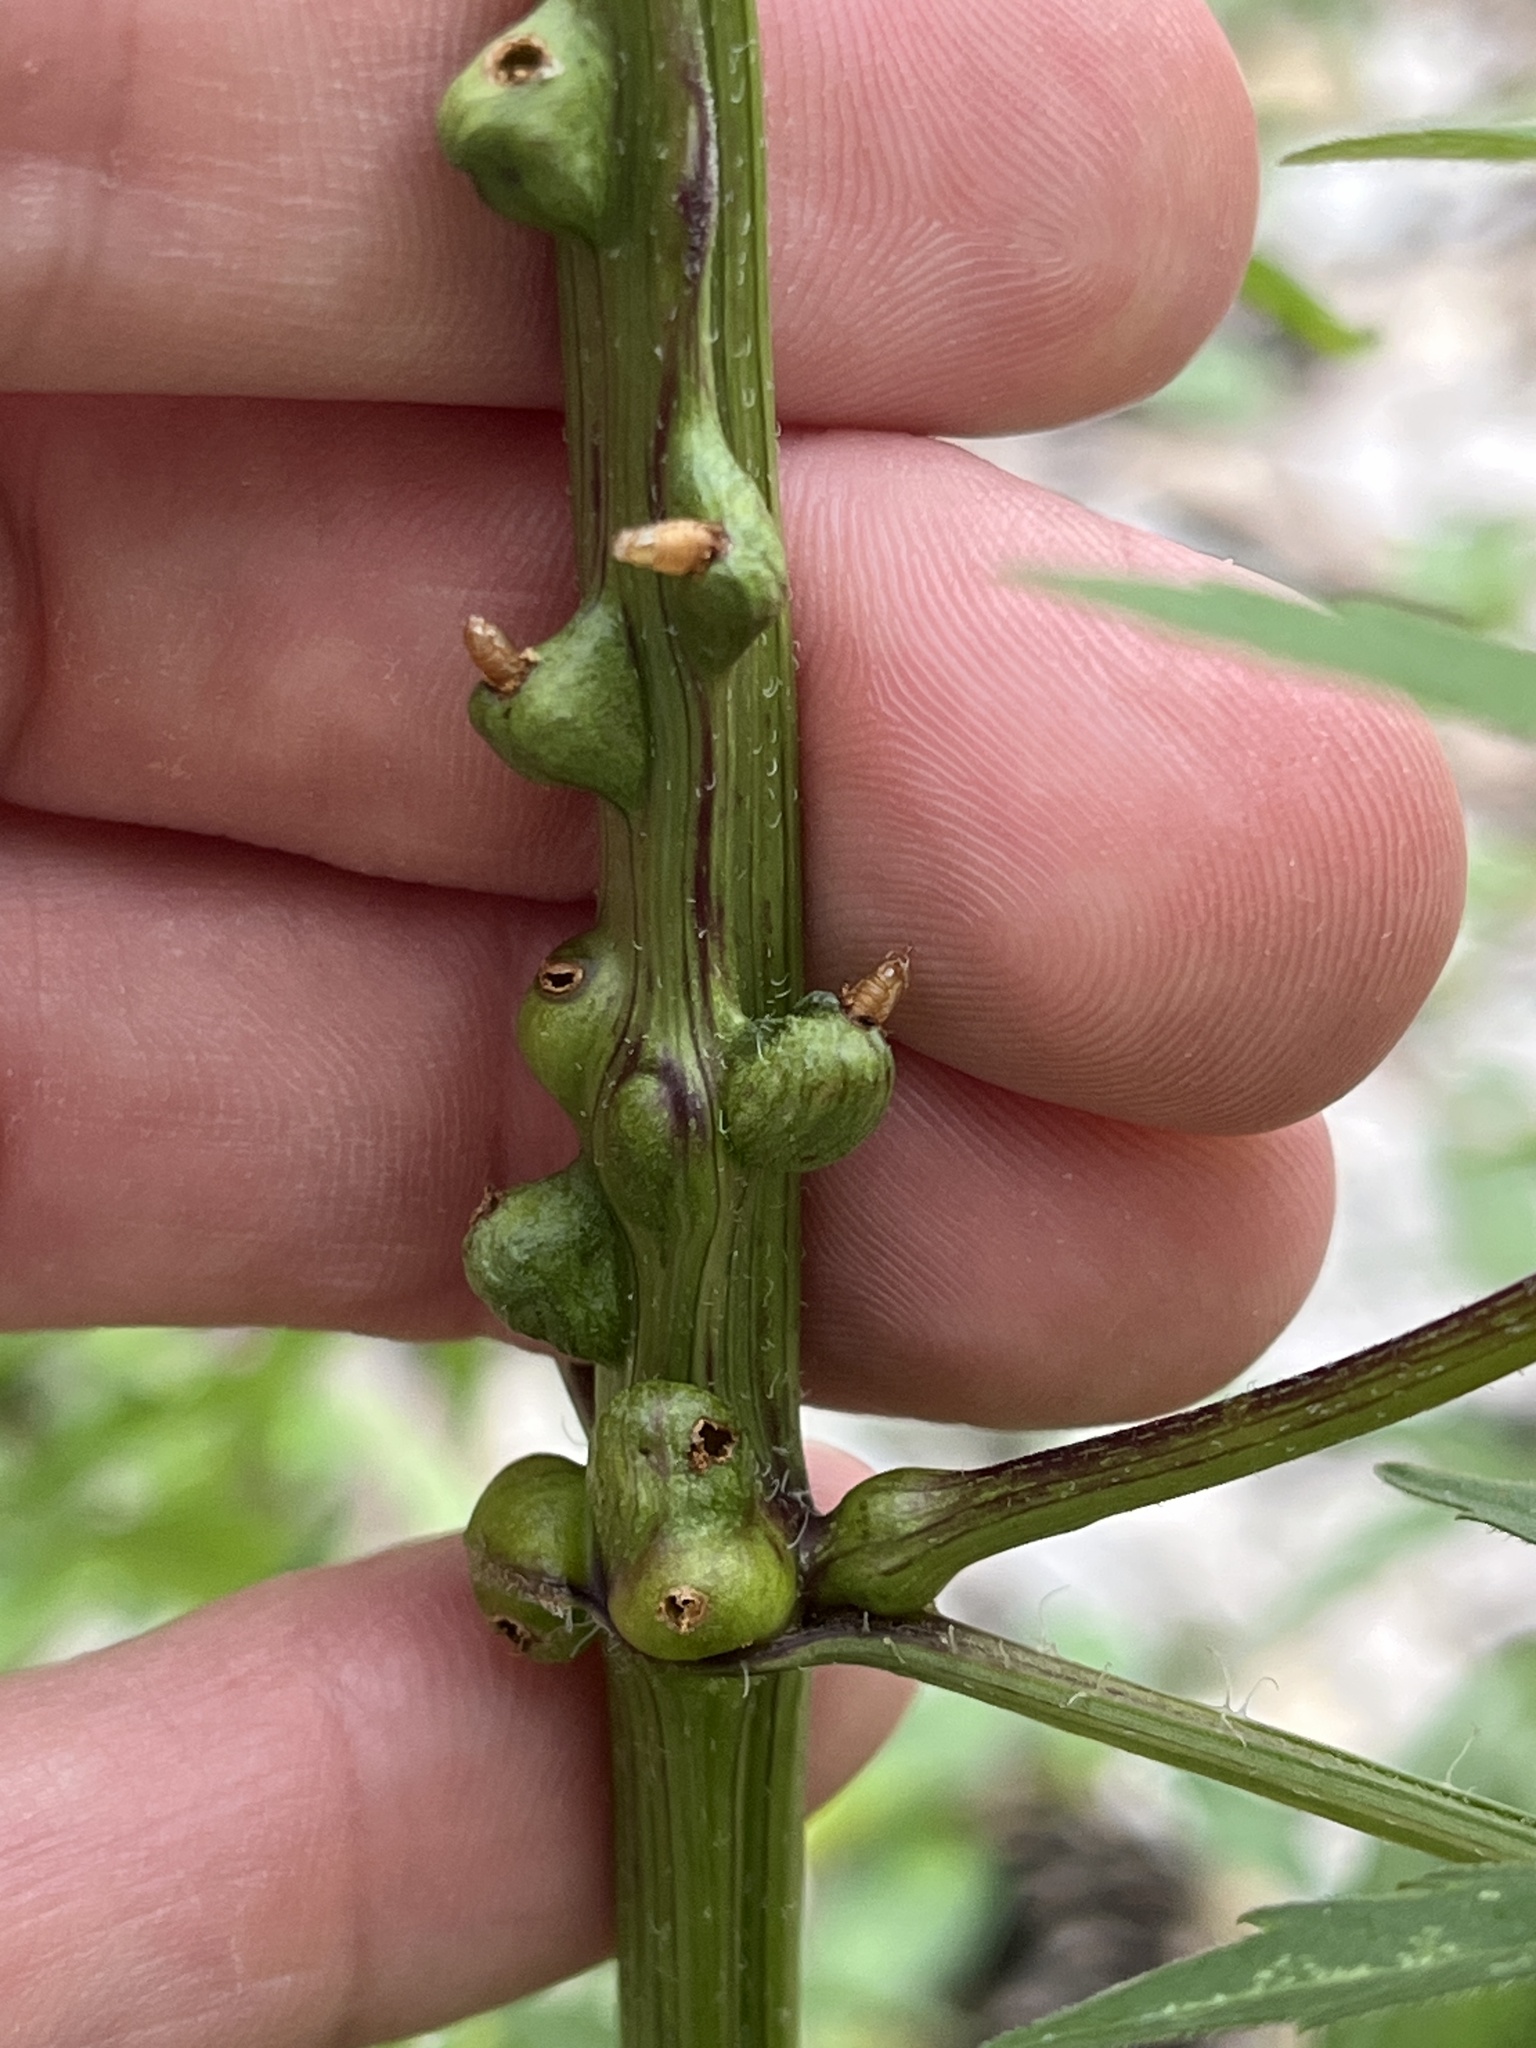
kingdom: Animalia
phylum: Arthropoda
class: Insecta
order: Diptera
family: Cecidomyiidae
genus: Asphondylia
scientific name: Asphondylia ovata
